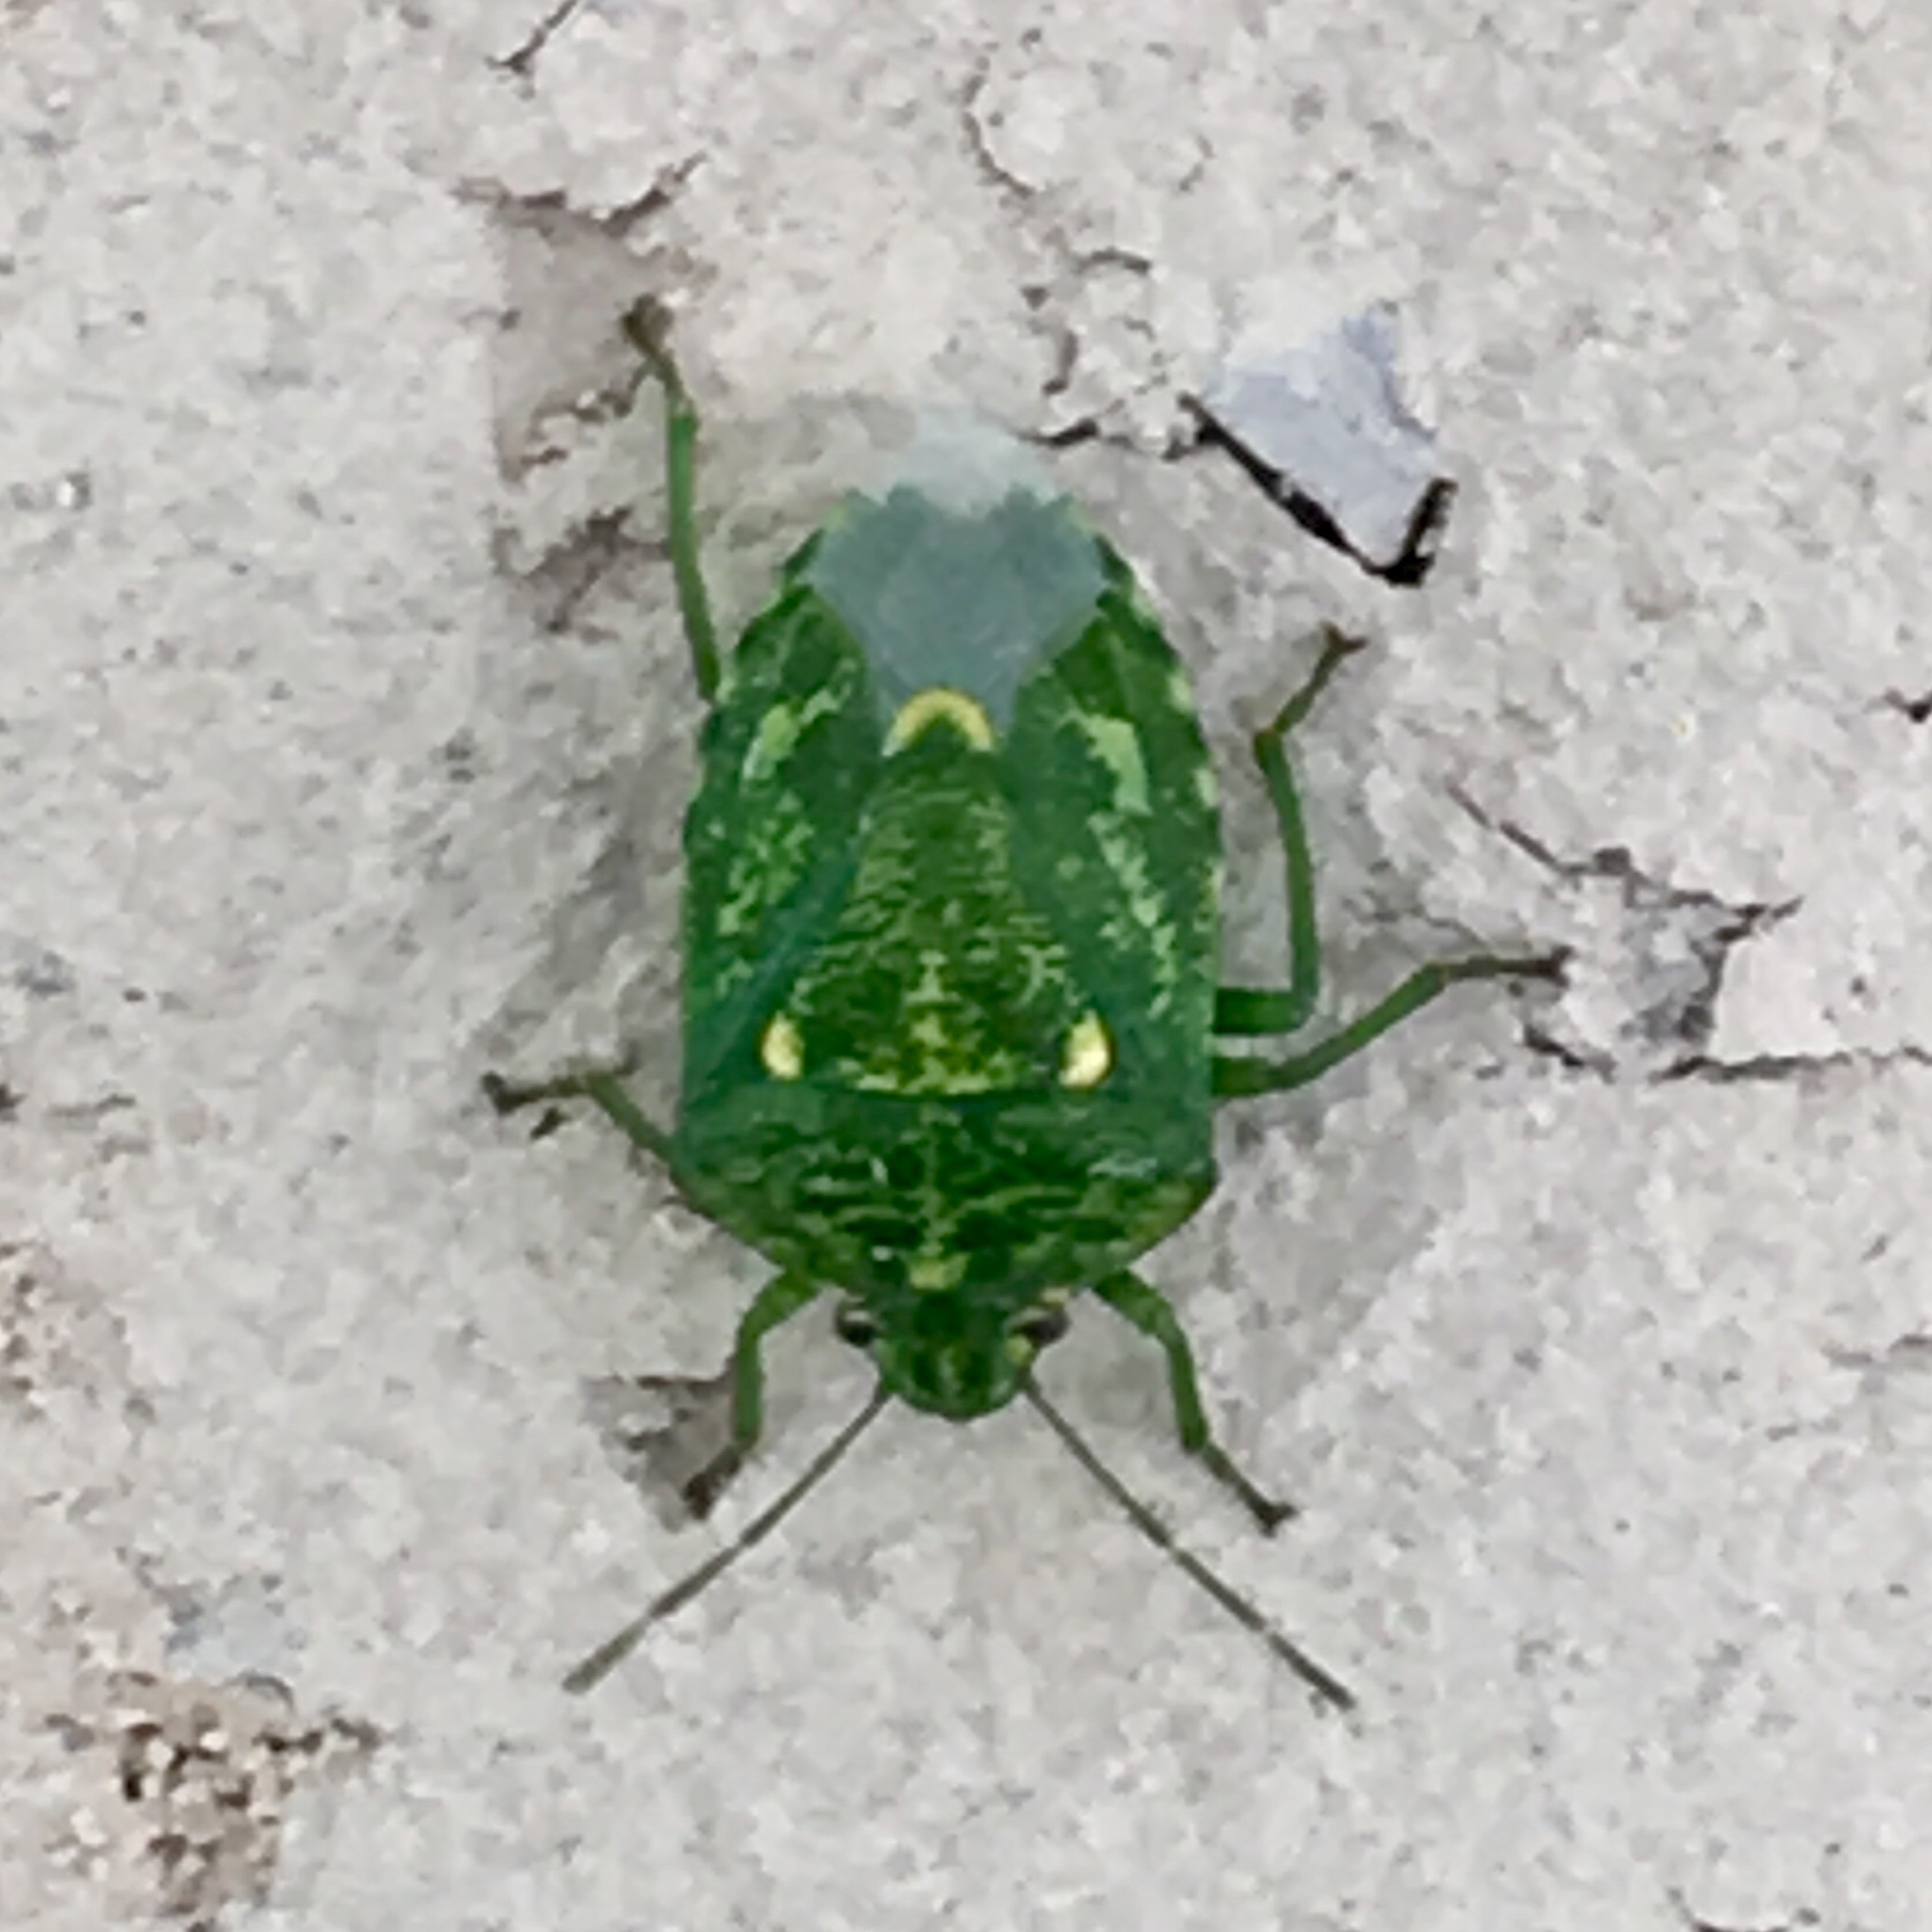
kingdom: Animalia
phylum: Arthropoda
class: Insecta
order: Hemiptera
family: Pentatomidae
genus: Banasa
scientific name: Banasa euchlora
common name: Cedar berry bug
